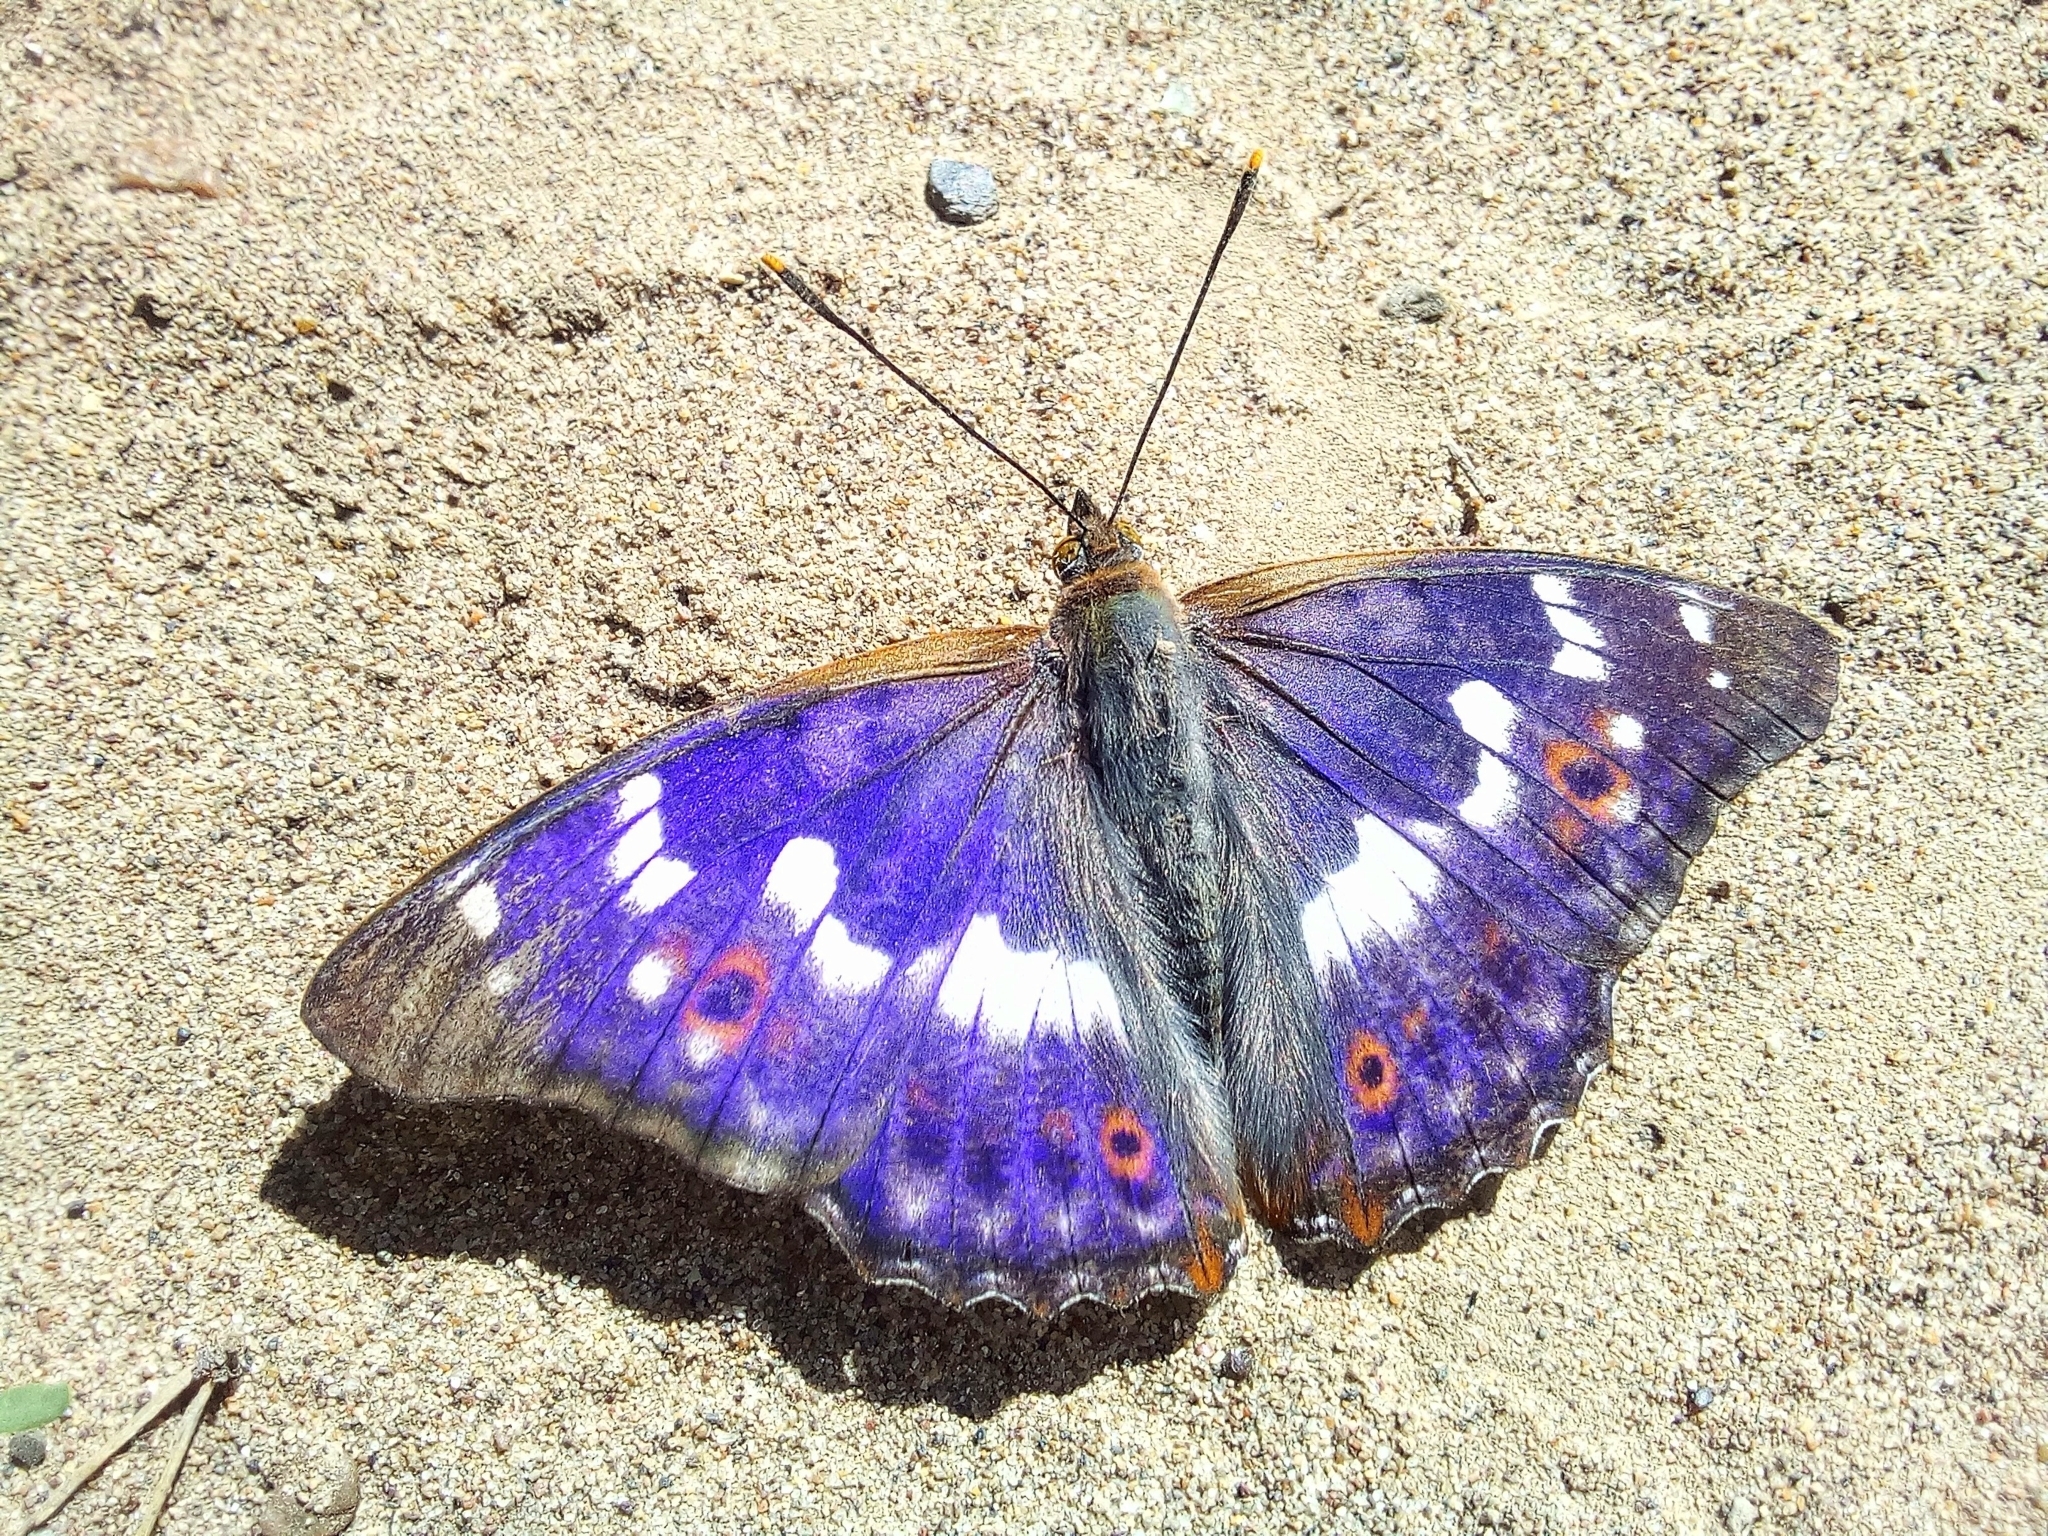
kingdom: Animalia
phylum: Arthropoda
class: Insecta
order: Lepidoptera
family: Nymphalidae
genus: Apatura
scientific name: Apatura ilia
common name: Lesser purple emperor
